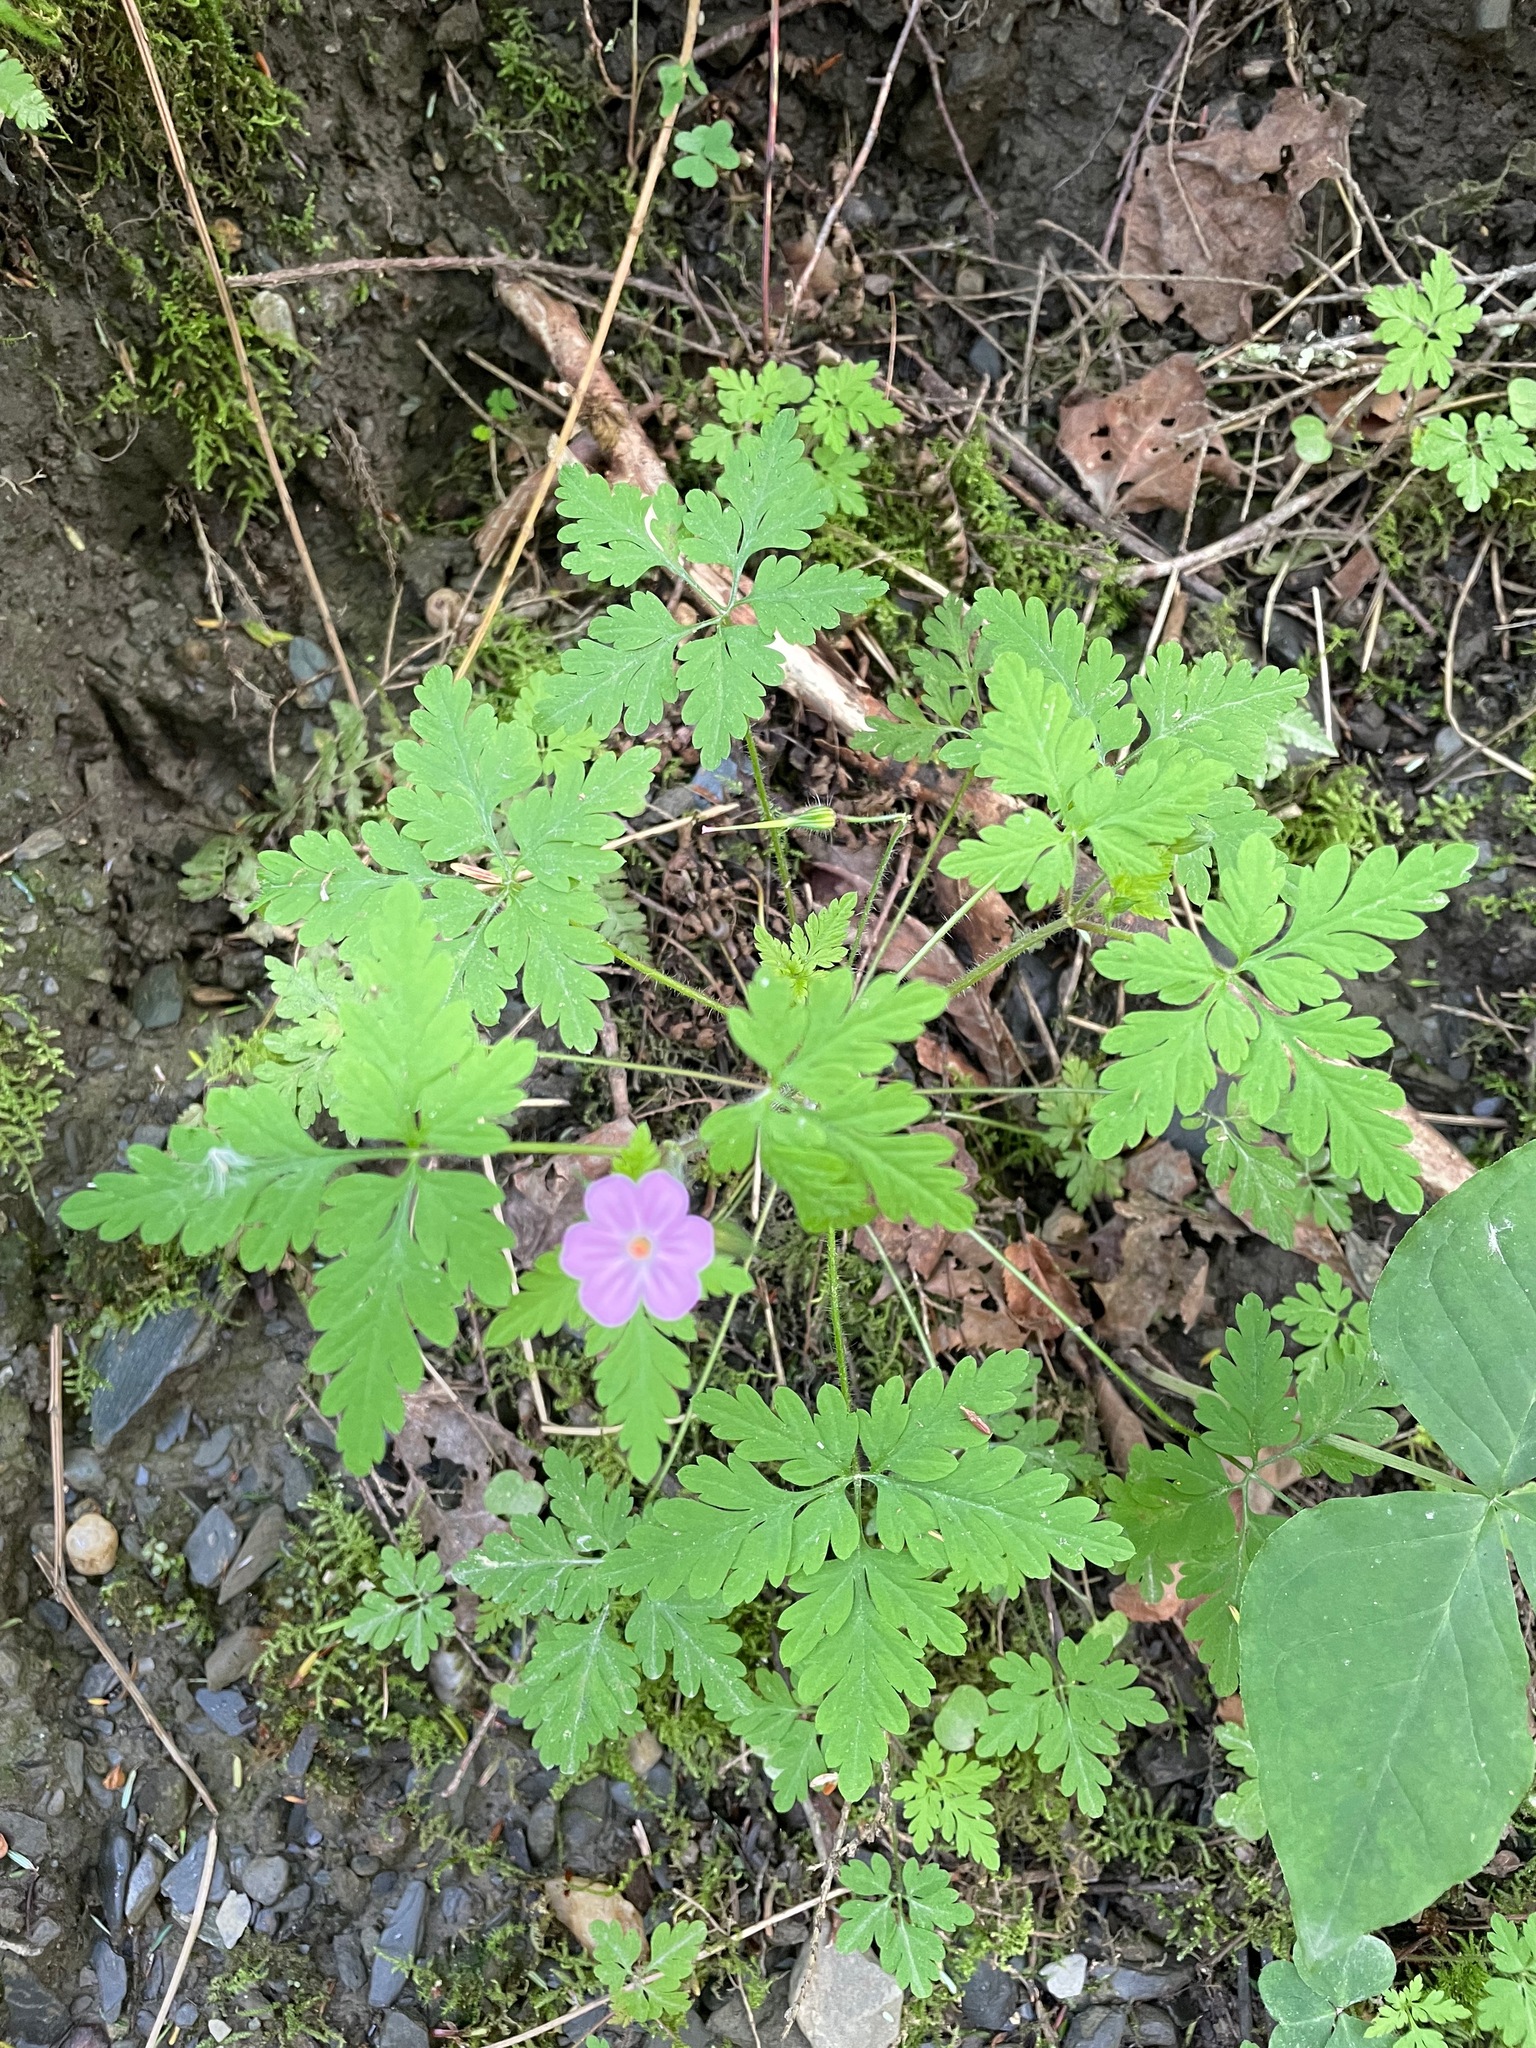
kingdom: Plantae
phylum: Tracheophyta
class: Magnoliopsida
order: Geraniales
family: Geraniaceae
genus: Geranium
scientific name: Geranium robertianum
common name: Herb-robert
